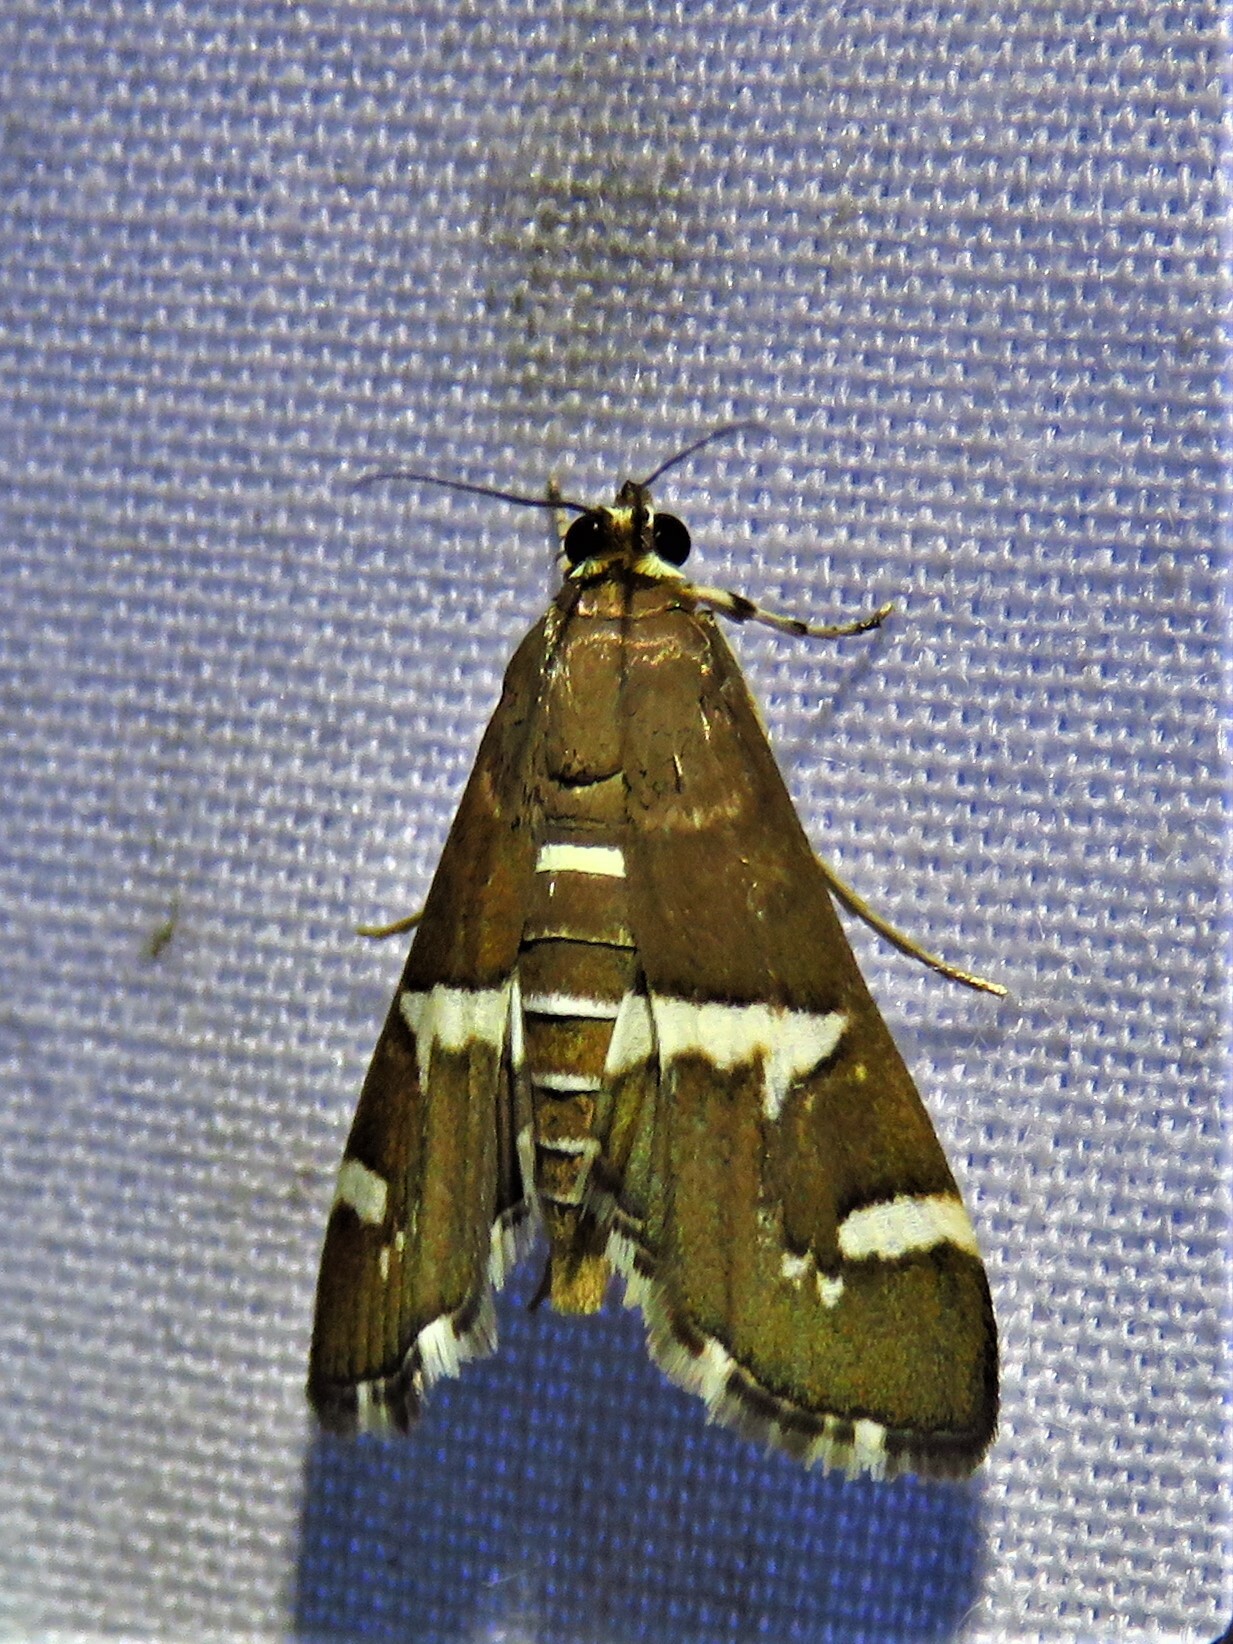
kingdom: Animalia
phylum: Arthropoda
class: Insecta
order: Lepidoptera
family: Crambidae
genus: Spoladea
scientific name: Spoladea recurvalis
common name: Beet webworm moth
